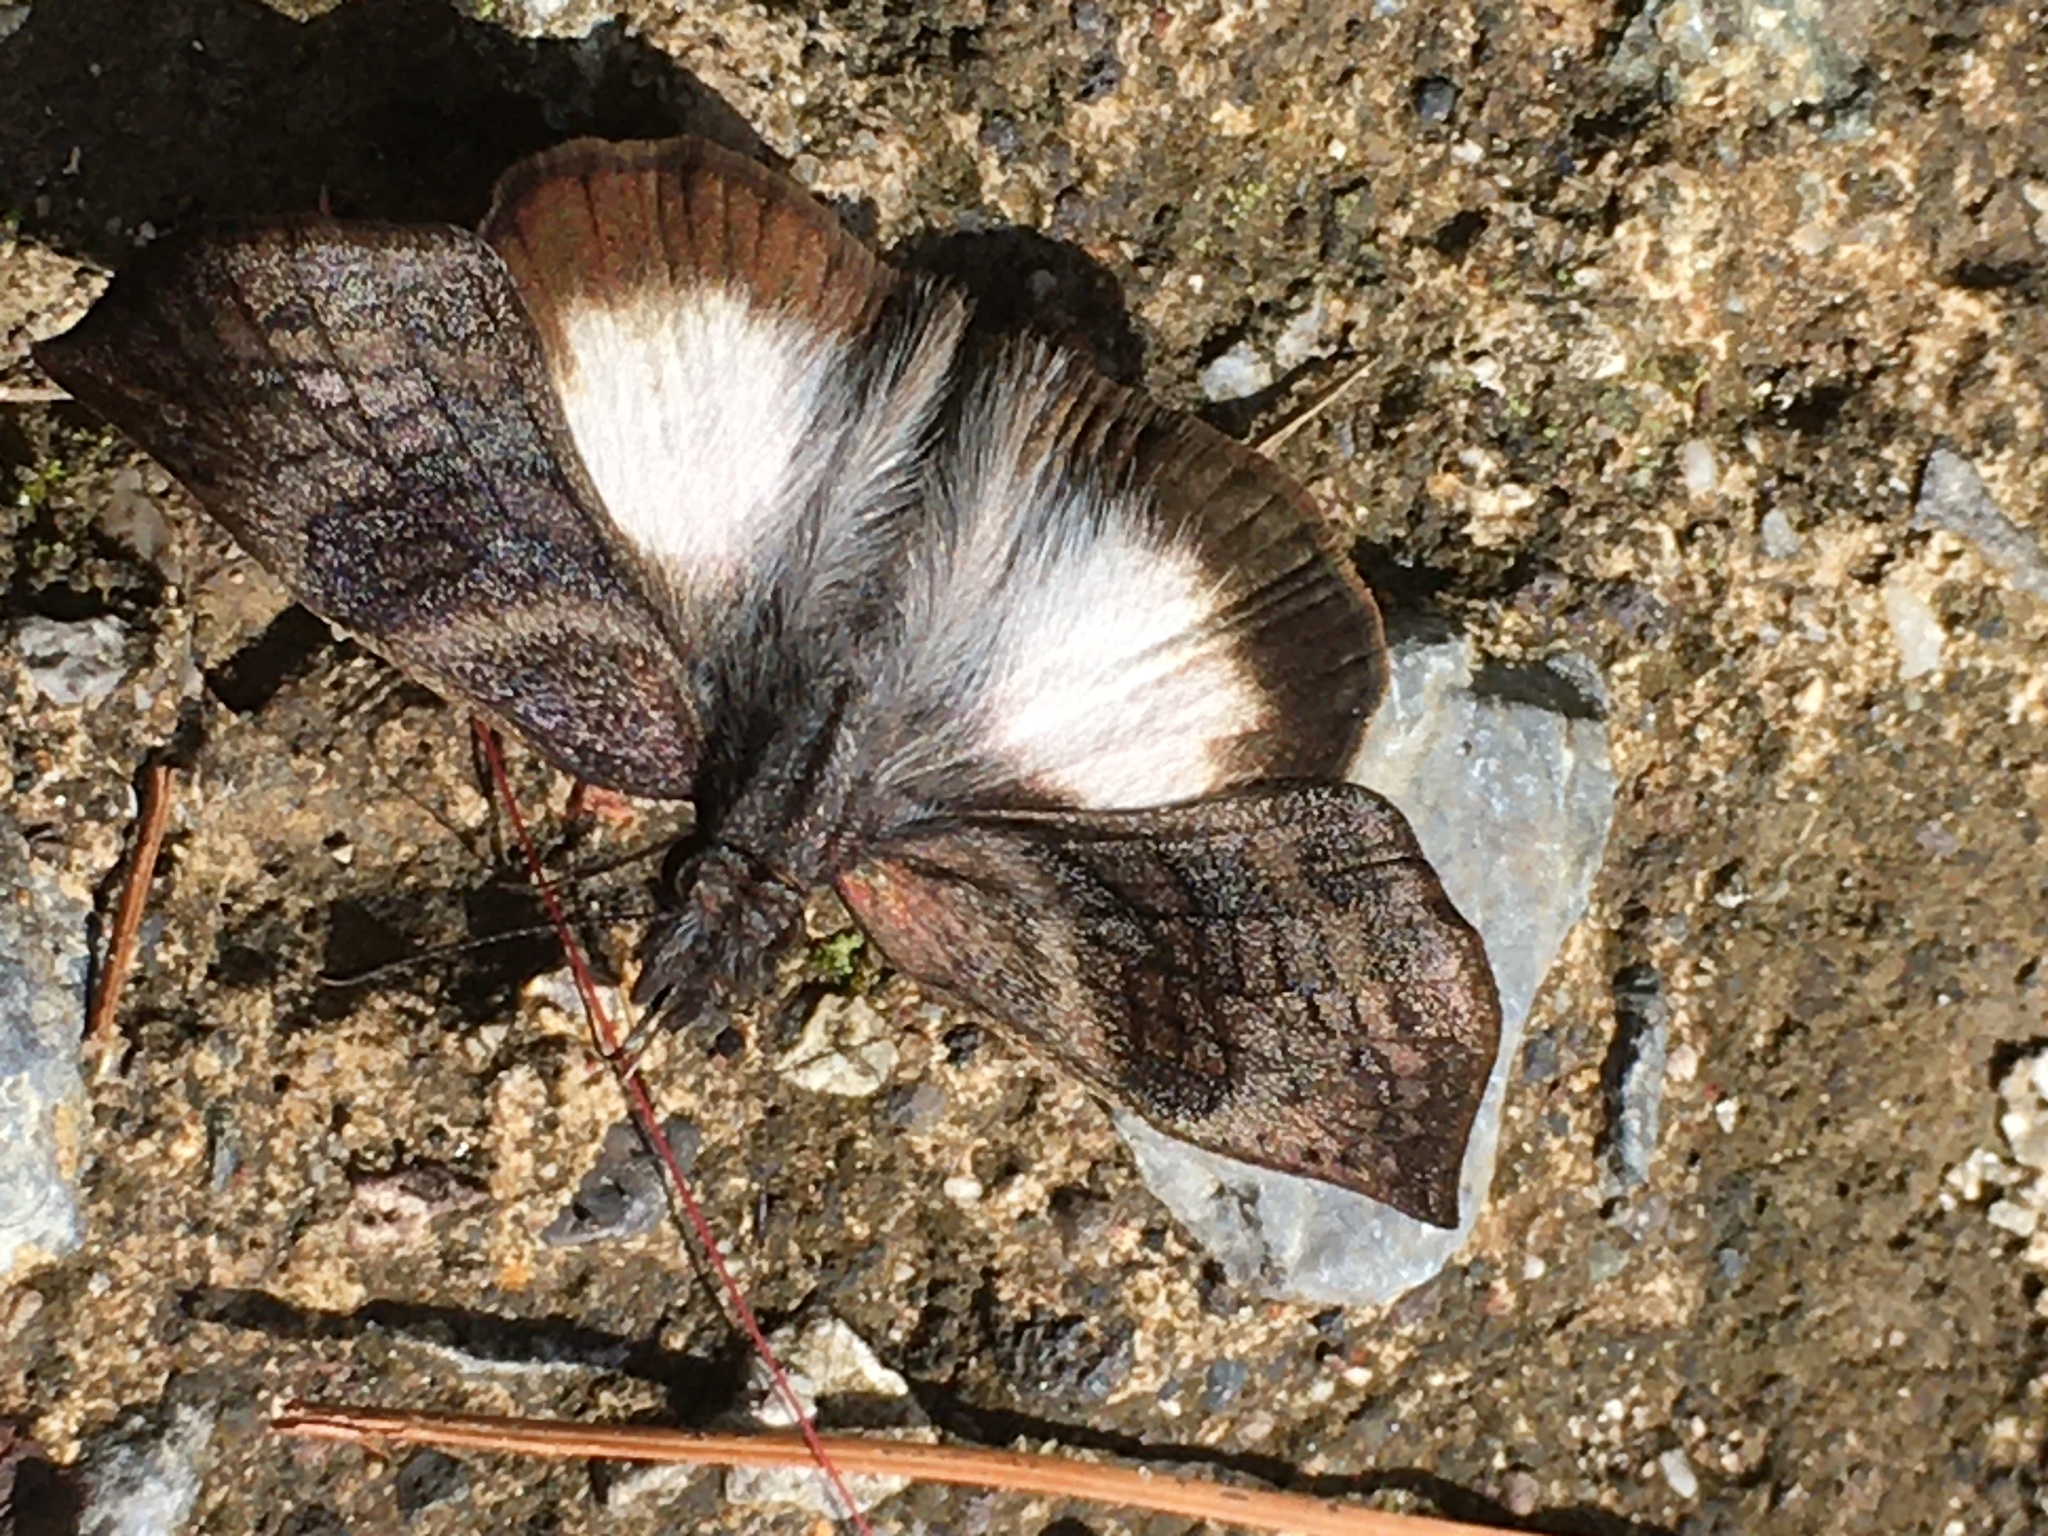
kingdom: Animalia
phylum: Arthropoda
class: Insecta
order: Lepidoptera
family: Hesperiidae
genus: Theagenes
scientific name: Theagenes
